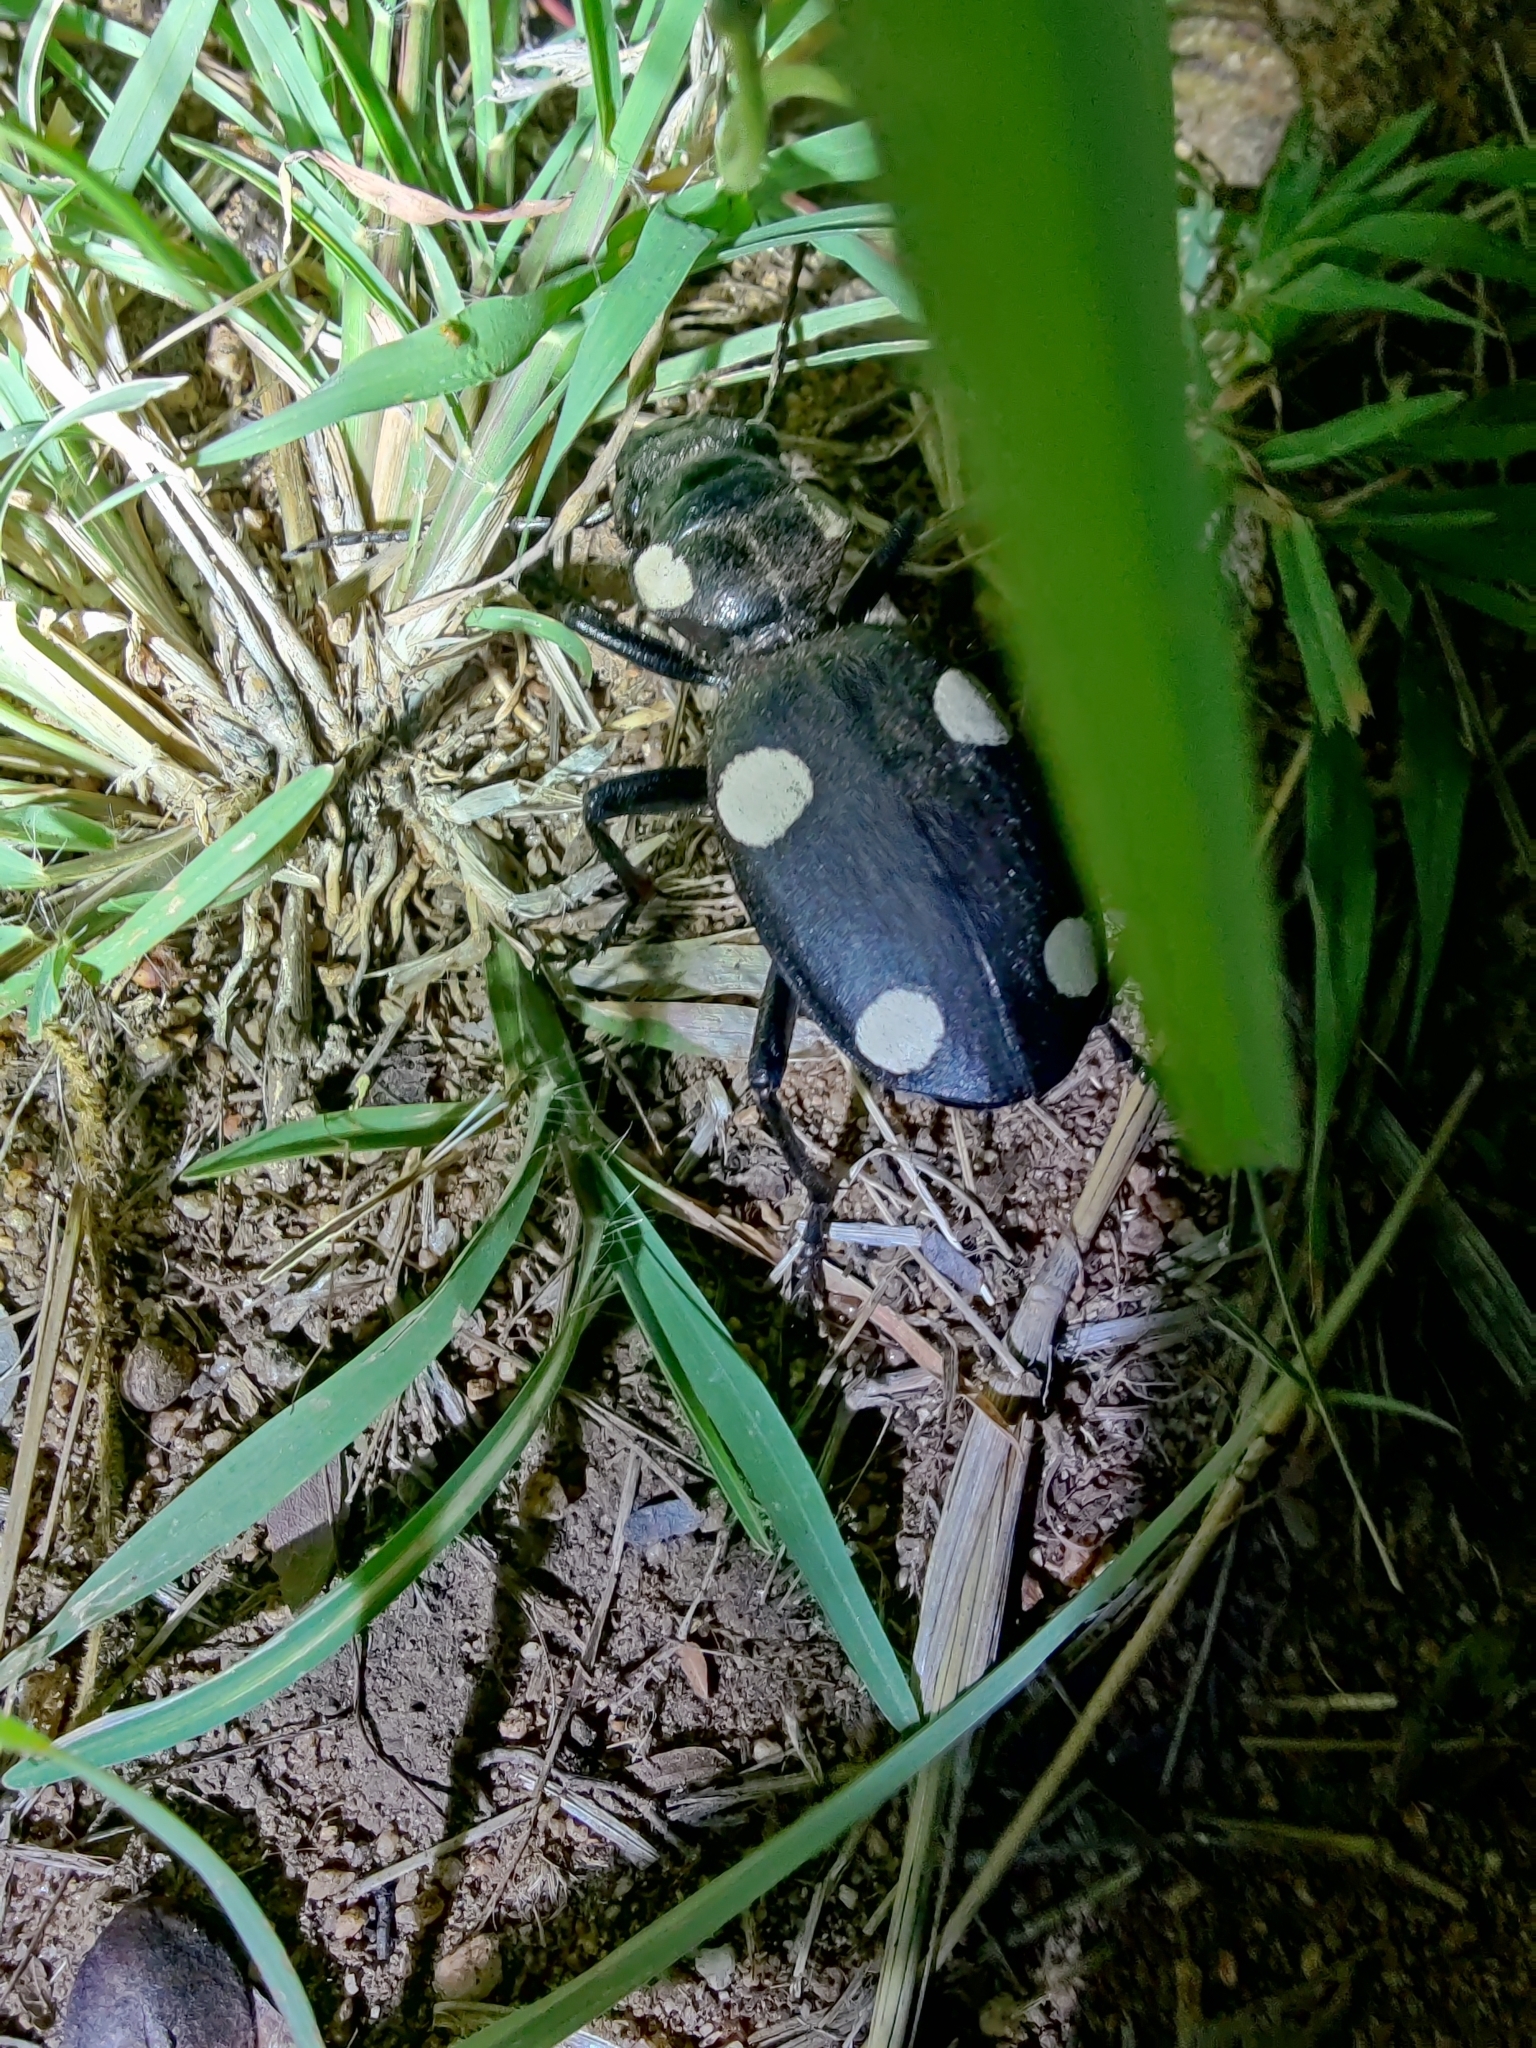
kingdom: Animalia
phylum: Arthropoda
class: Insecta
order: Coleoptera
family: Carabidae
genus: Anthia
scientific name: Anthia sexguttata
